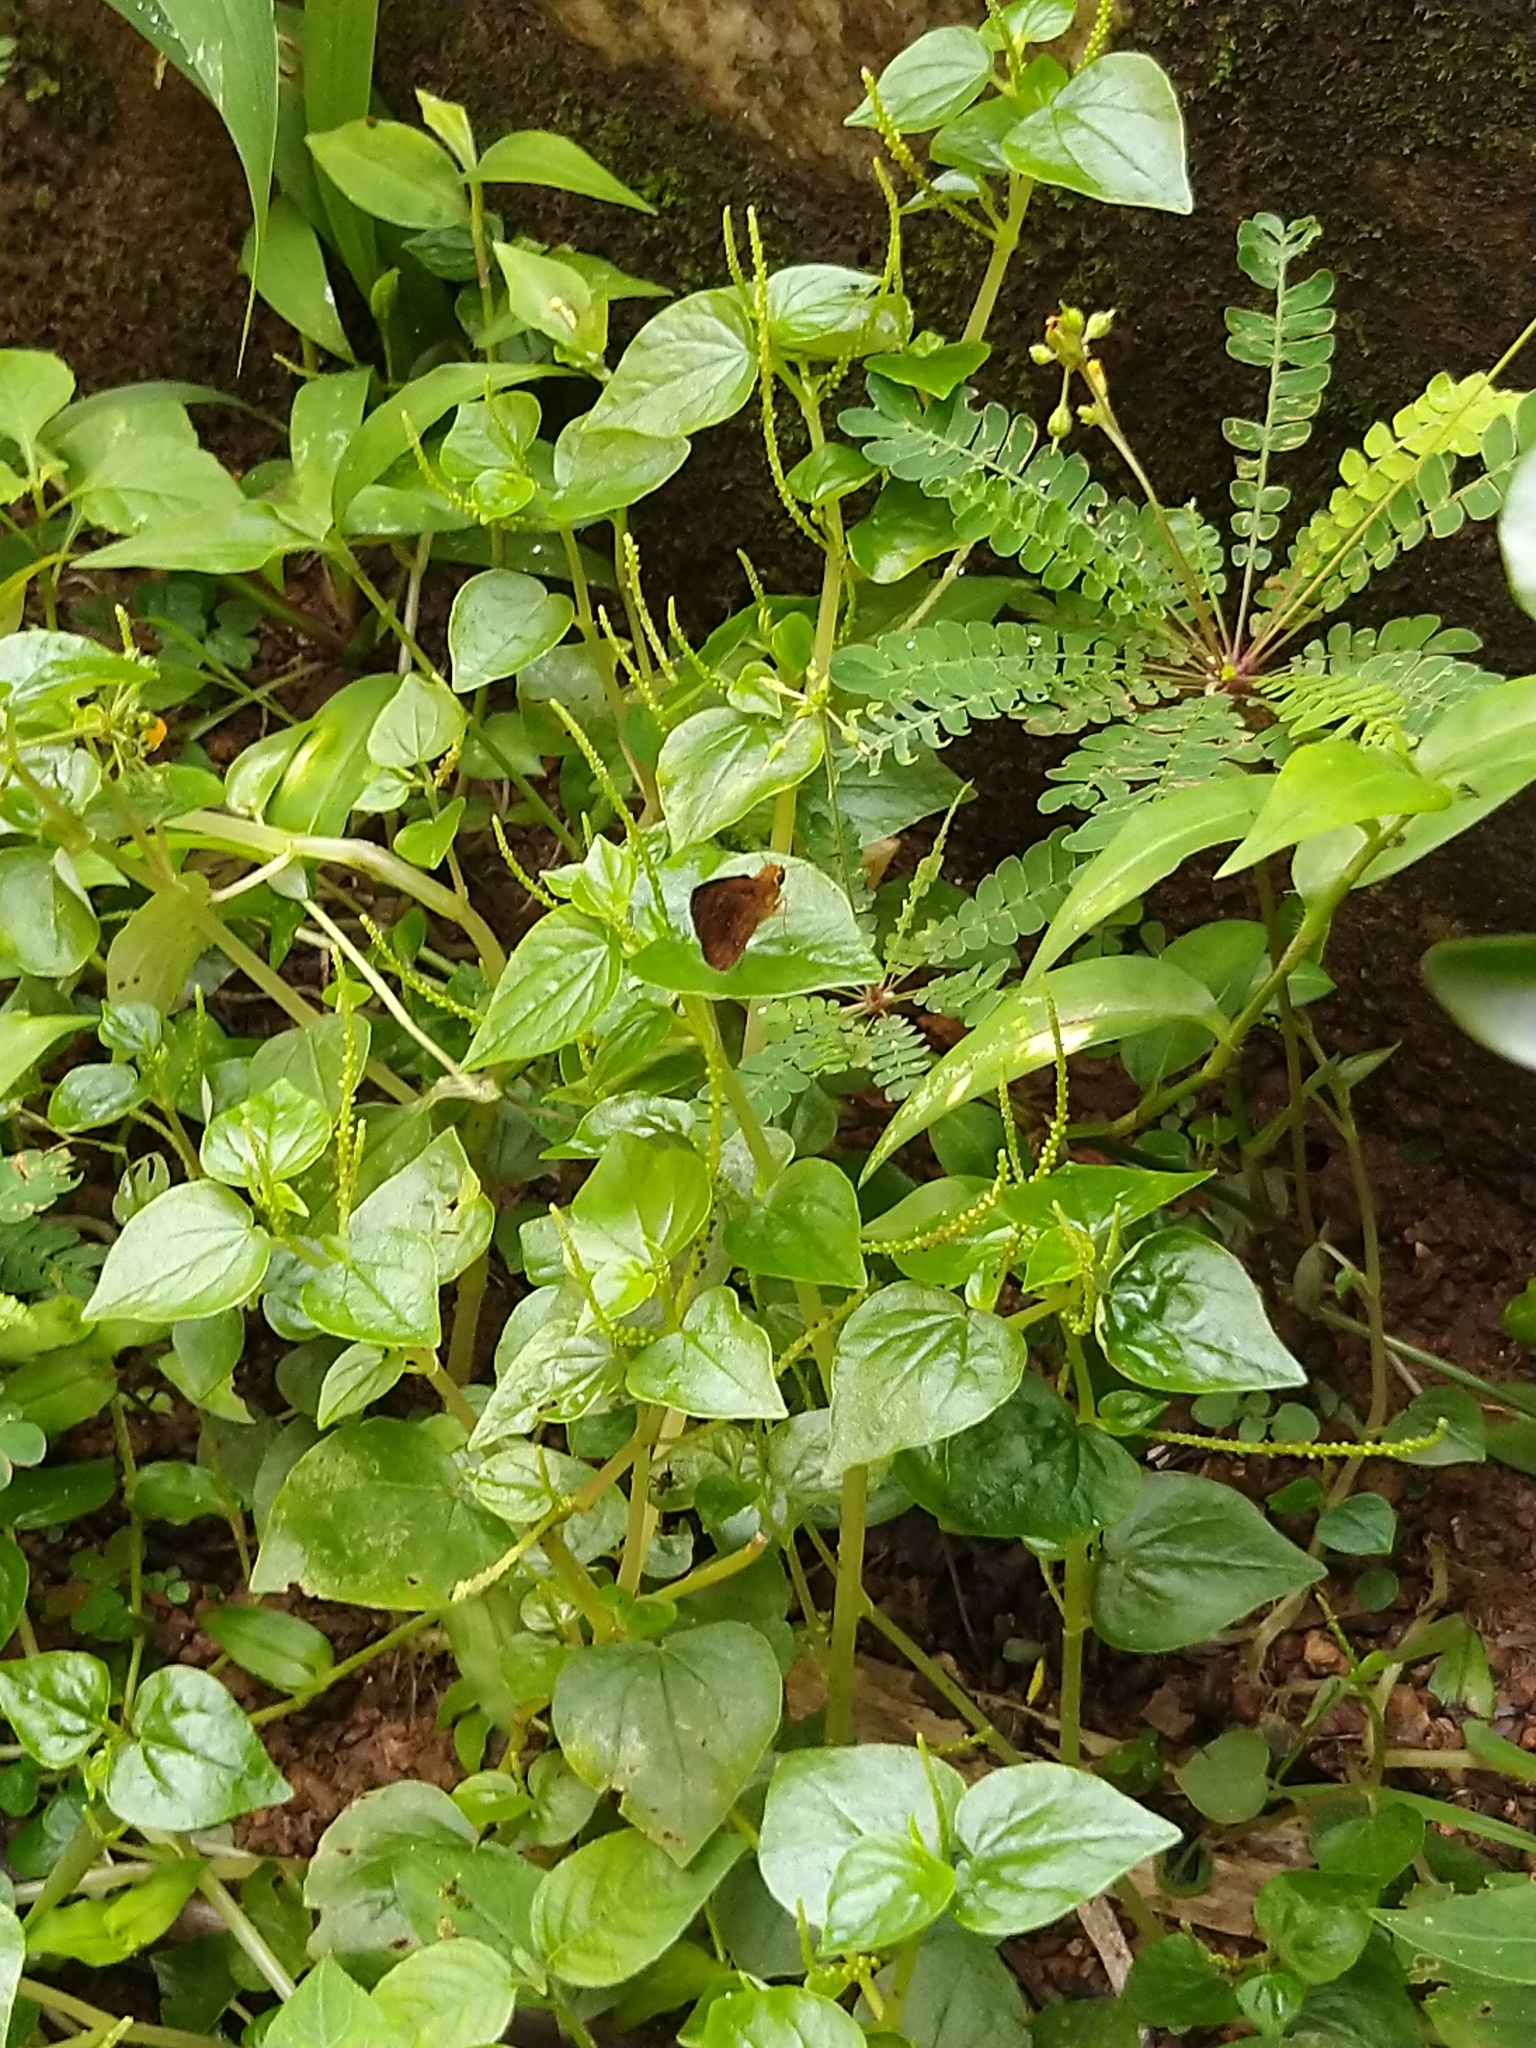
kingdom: Animalia
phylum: Arthropoda
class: Insecta
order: Lepidoptera
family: Hesperiidae
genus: Iambrix
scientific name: Iambrix salsala
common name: Chestnut bob
